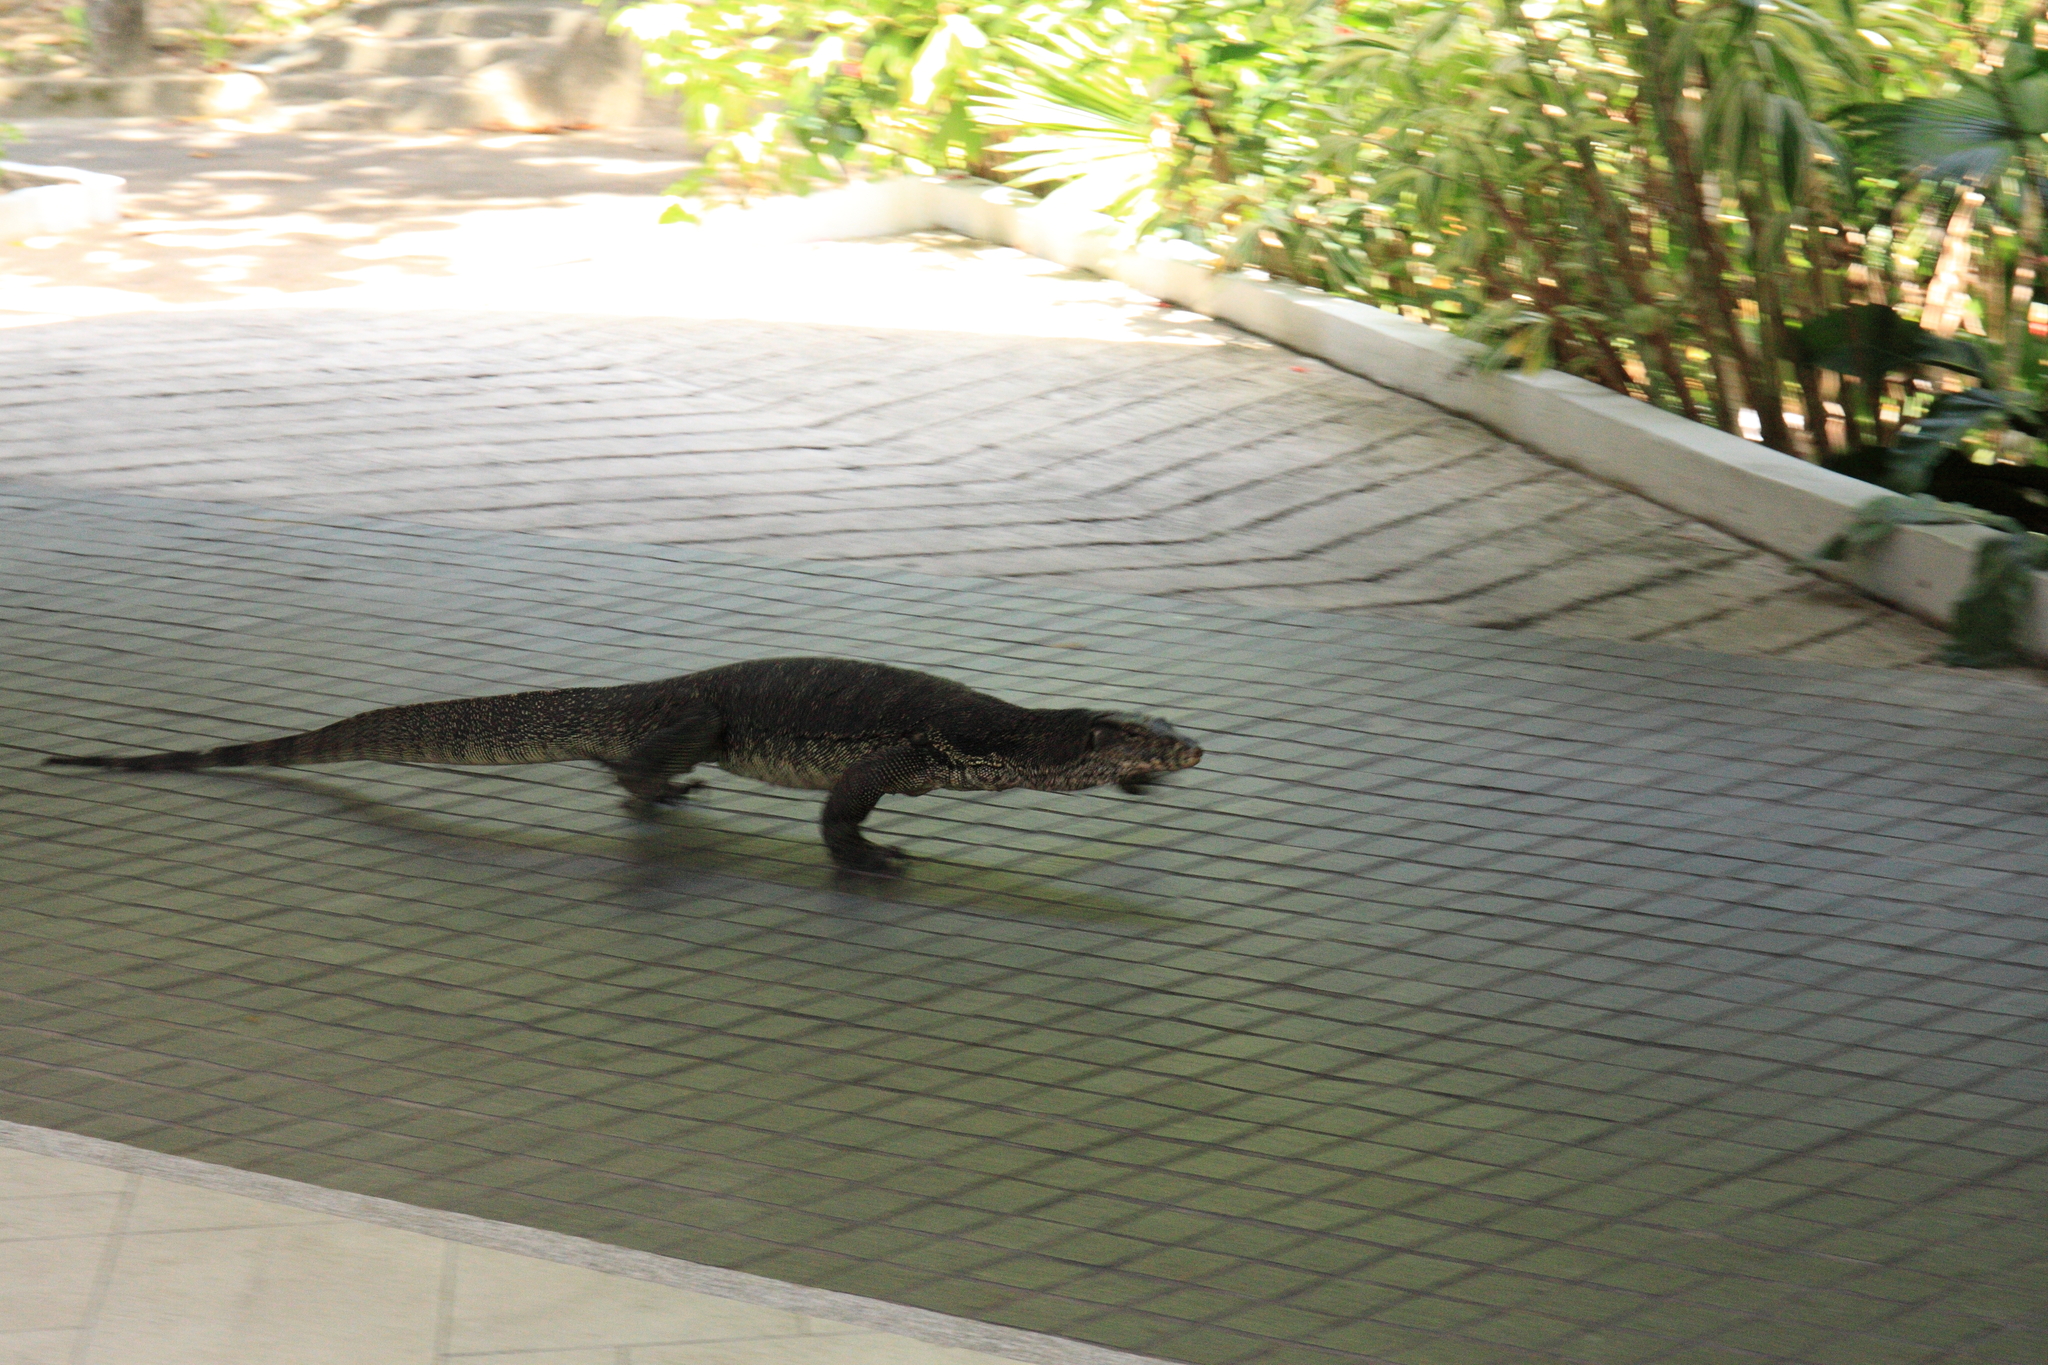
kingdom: Animalia
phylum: Chordata
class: Squamata
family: Varanidae
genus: Varanus
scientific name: Varanus salvator
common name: Common water monitor
